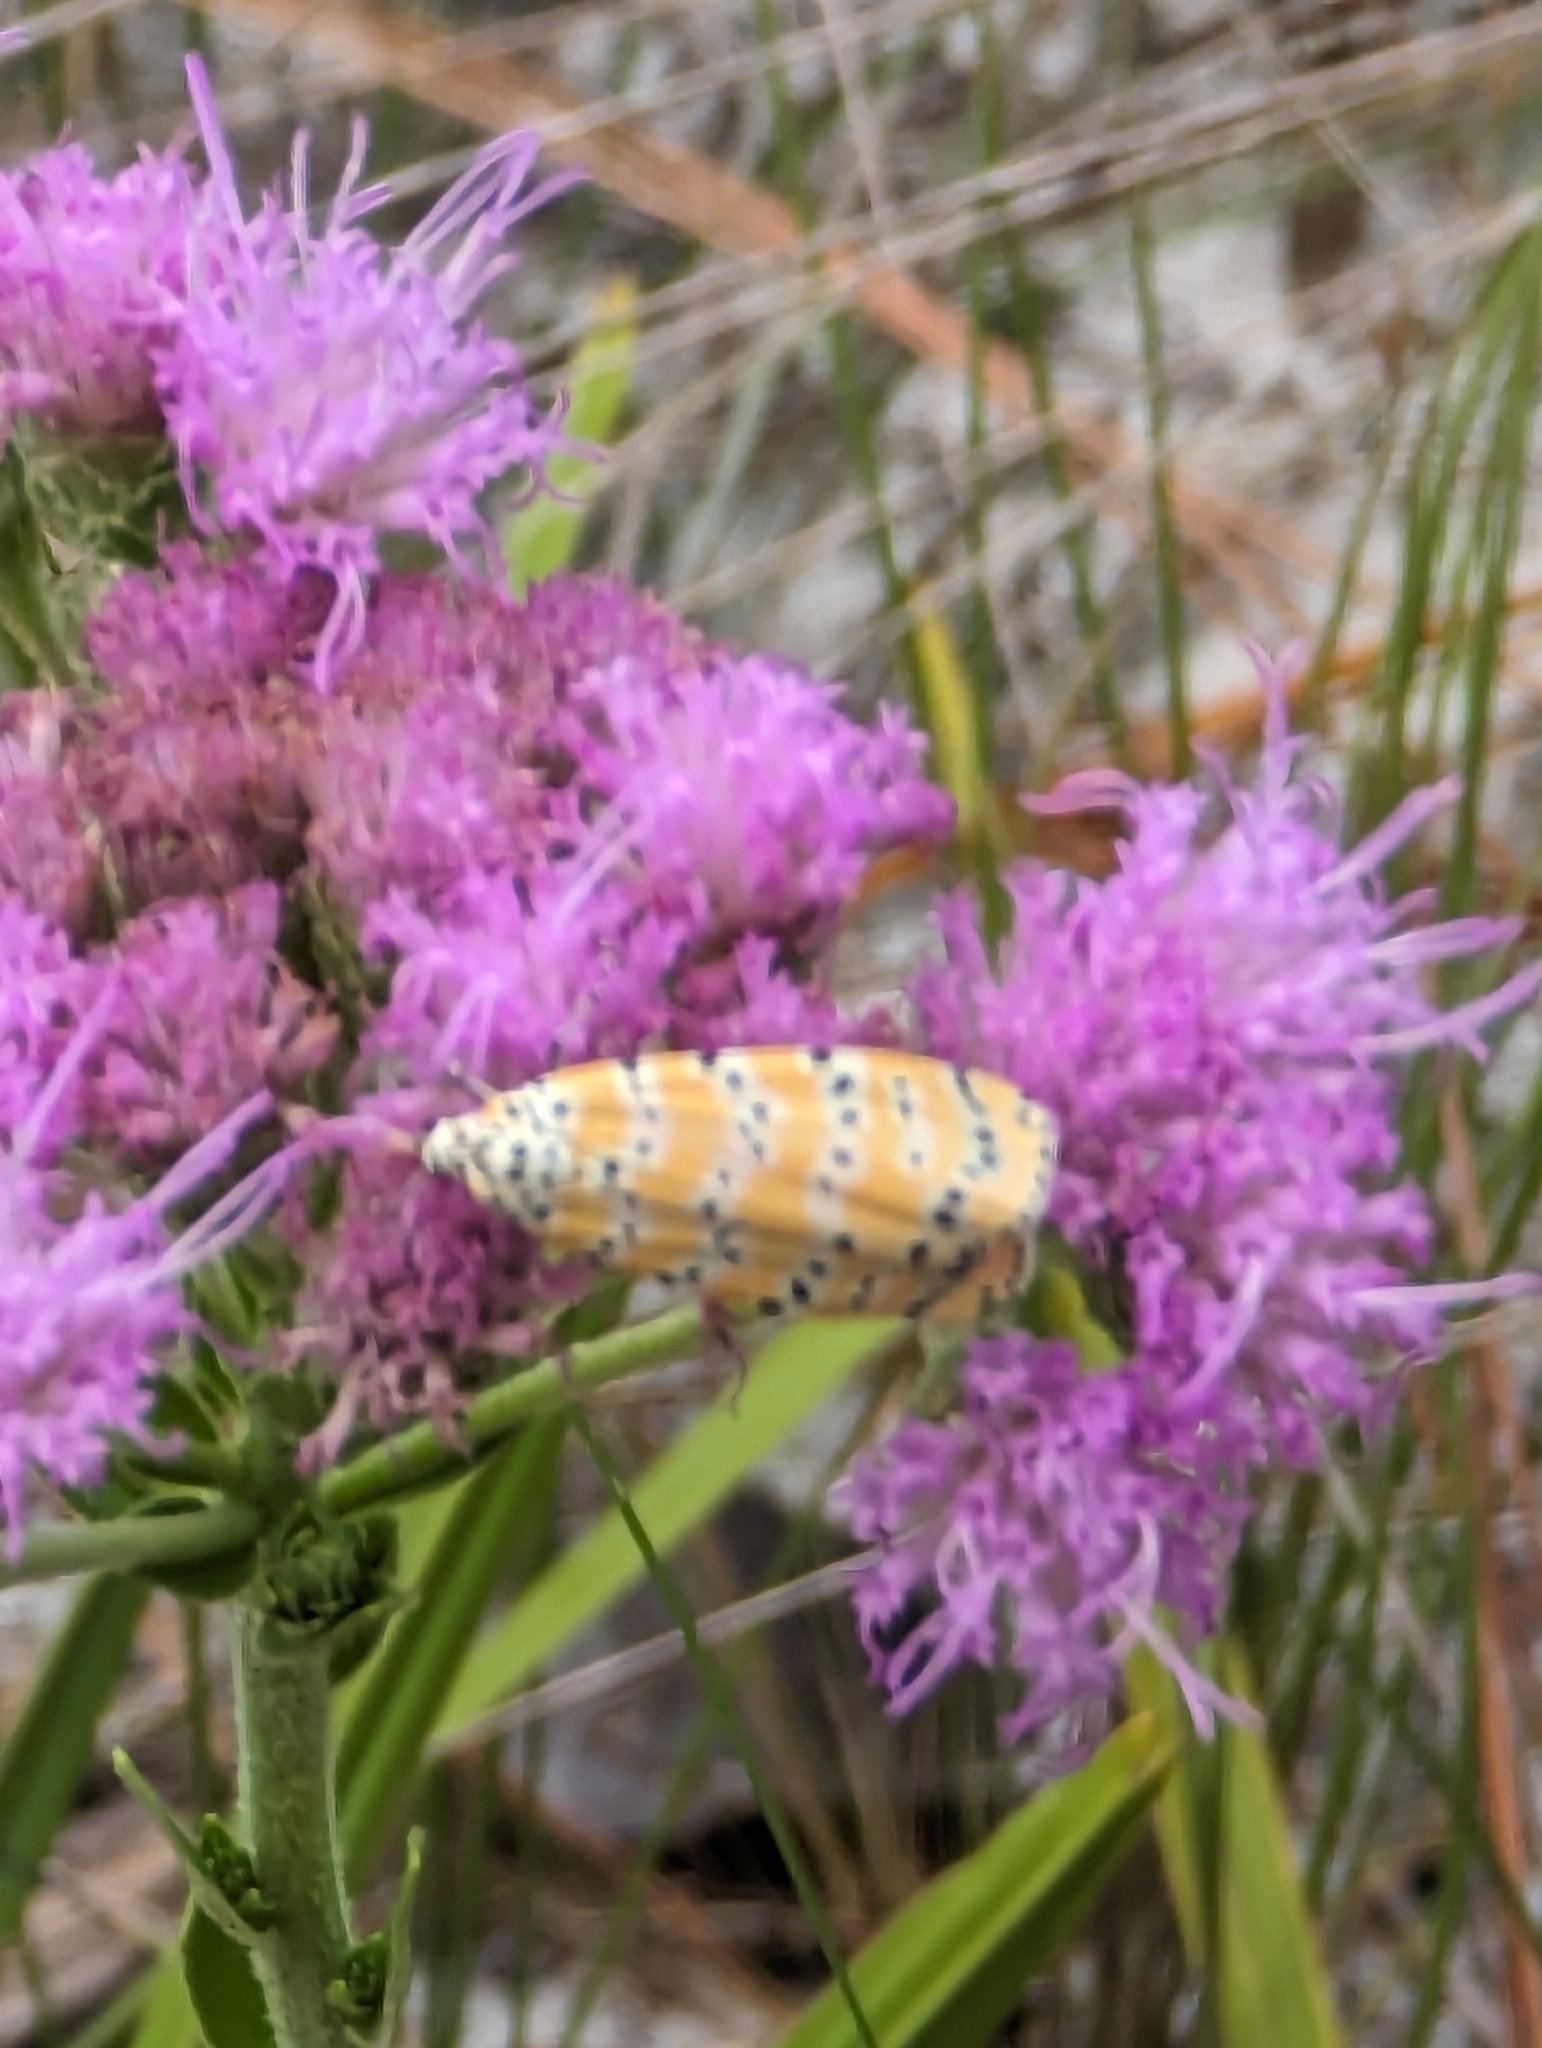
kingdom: Animalia
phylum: Arthropoda
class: Insecta
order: Lepidoptera
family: Erebidae
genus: Utetheisa
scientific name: Utetheisa ornatrix
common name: Beautiful utetheisa
